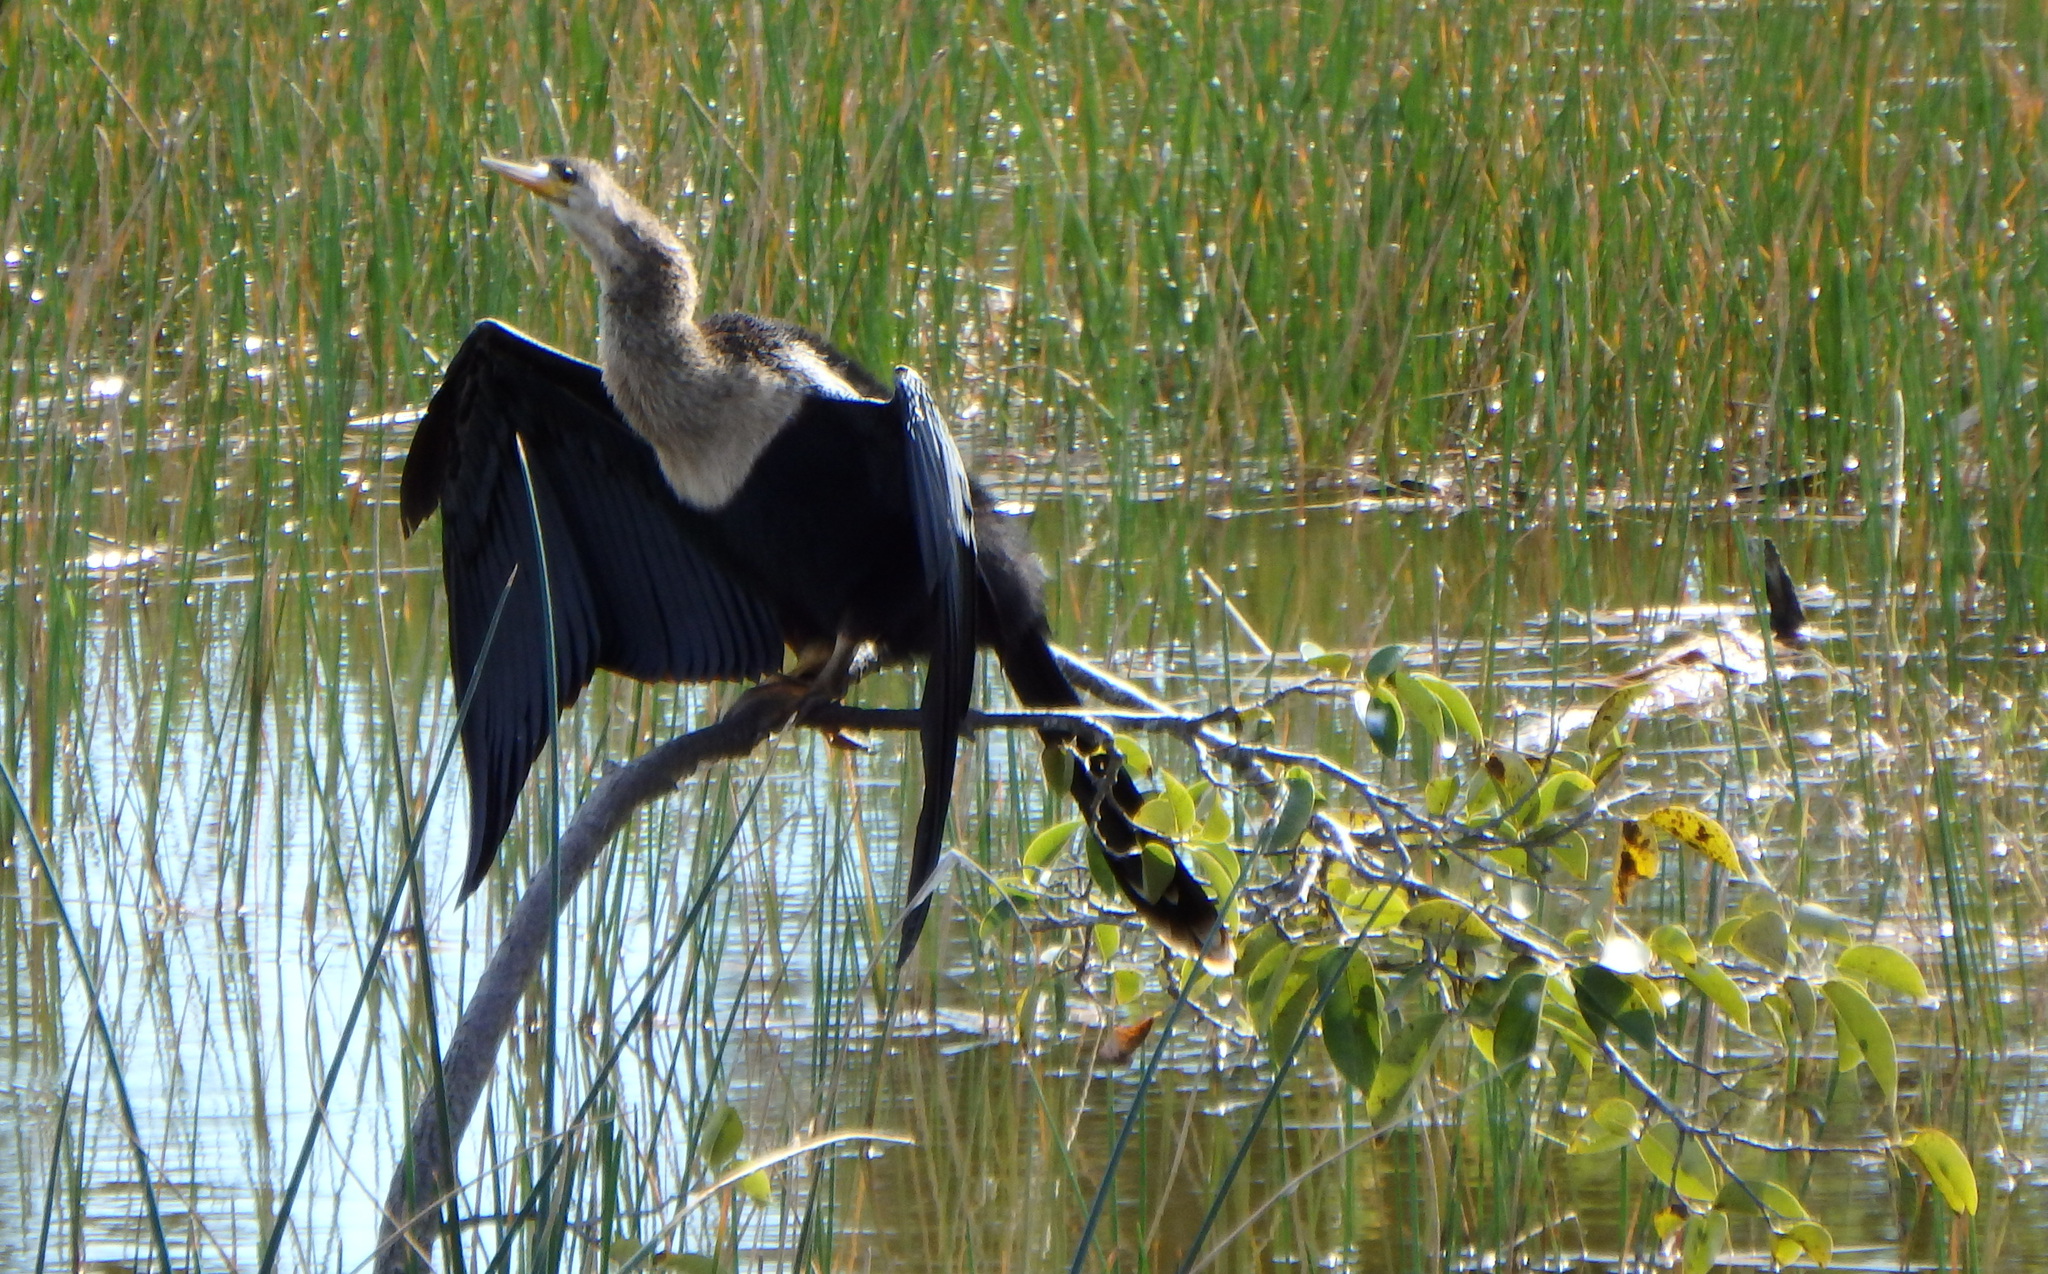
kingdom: Animalia
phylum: Chordata
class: Aves
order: Suliformes
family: Anhingidae
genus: Anhinga
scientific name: Anhinga anhinga
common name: Anhinga
